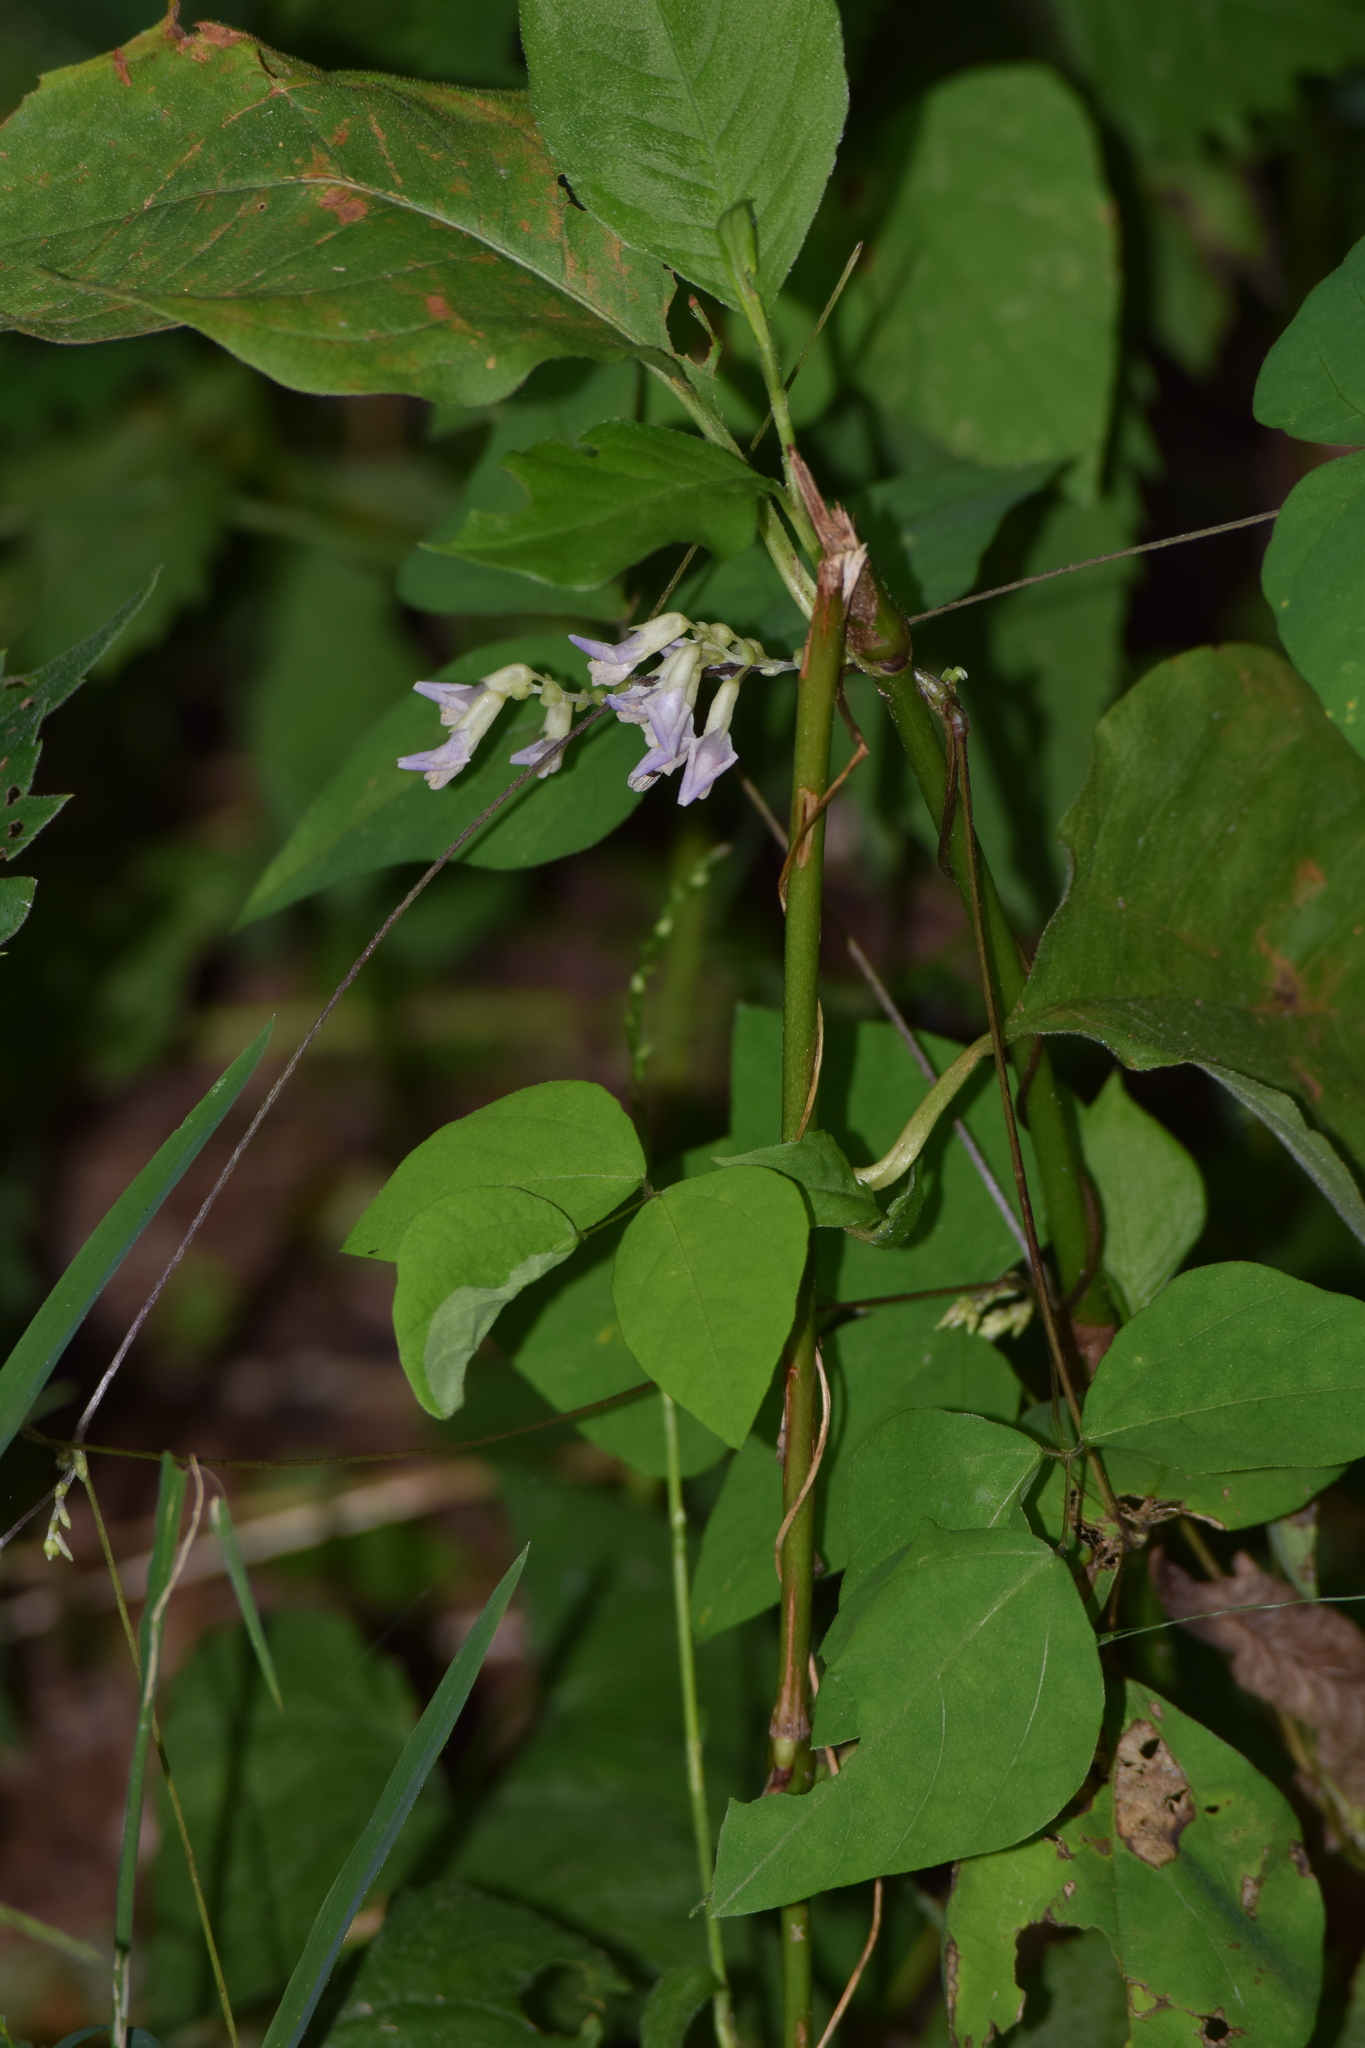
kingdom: Plantae
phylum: Tracheophyta
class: Magnoliopsida
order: Fabales
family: Fabaceae
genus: Amphicarpaea
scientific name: Amphicarpaea bracteata
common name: American hog peanut
